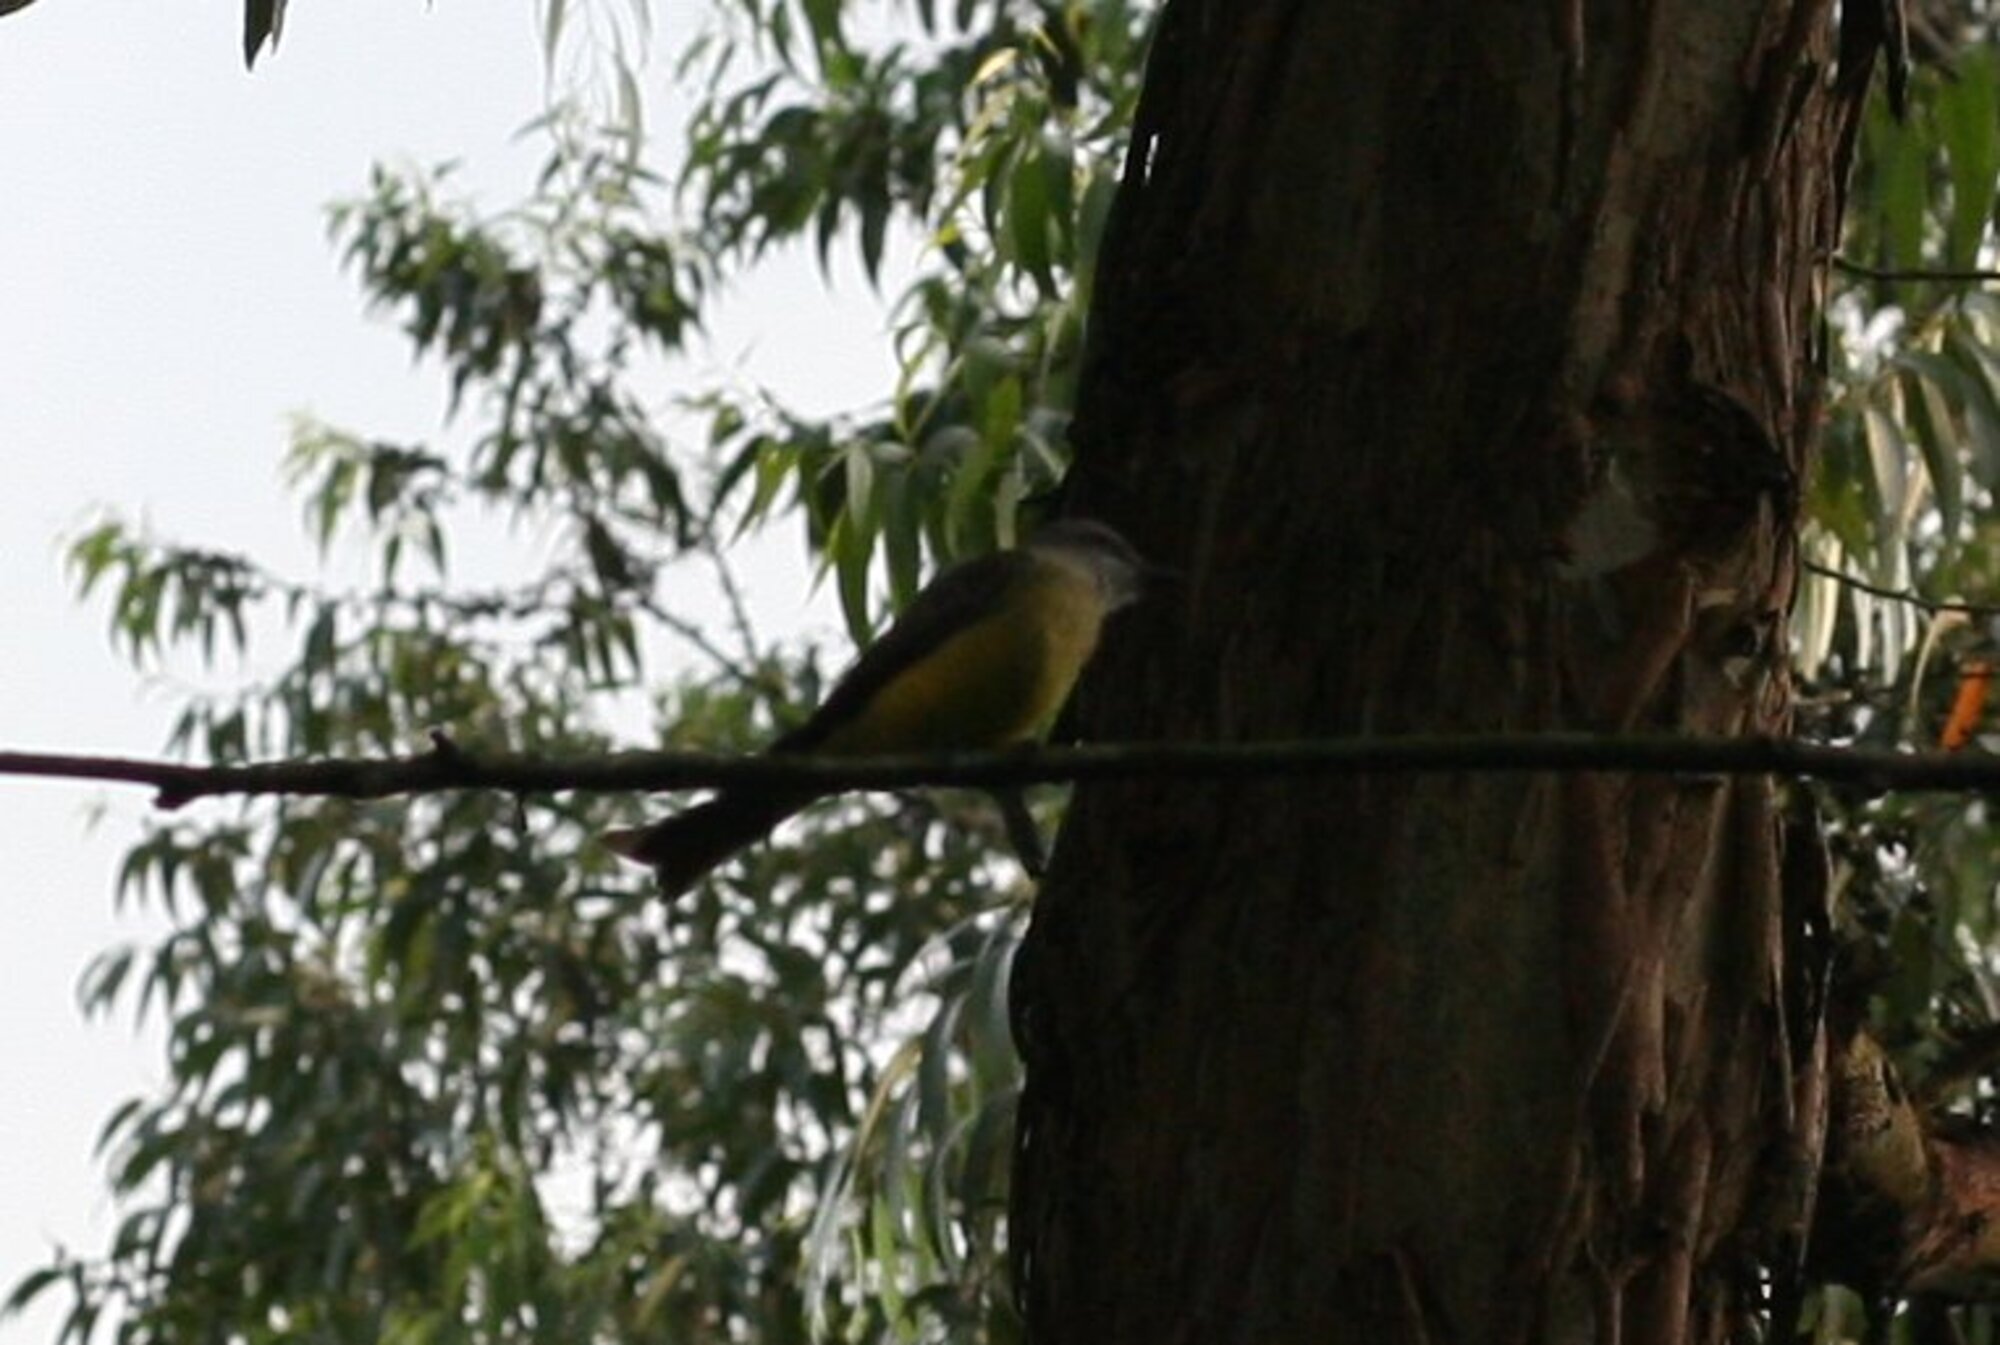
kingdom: Animalia
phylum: Chordata
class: Aves
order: Passeriformes
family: Tyrannidae
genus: Tyrannus
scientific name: Tyrannus melancholicus
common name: Tropical kingbird
